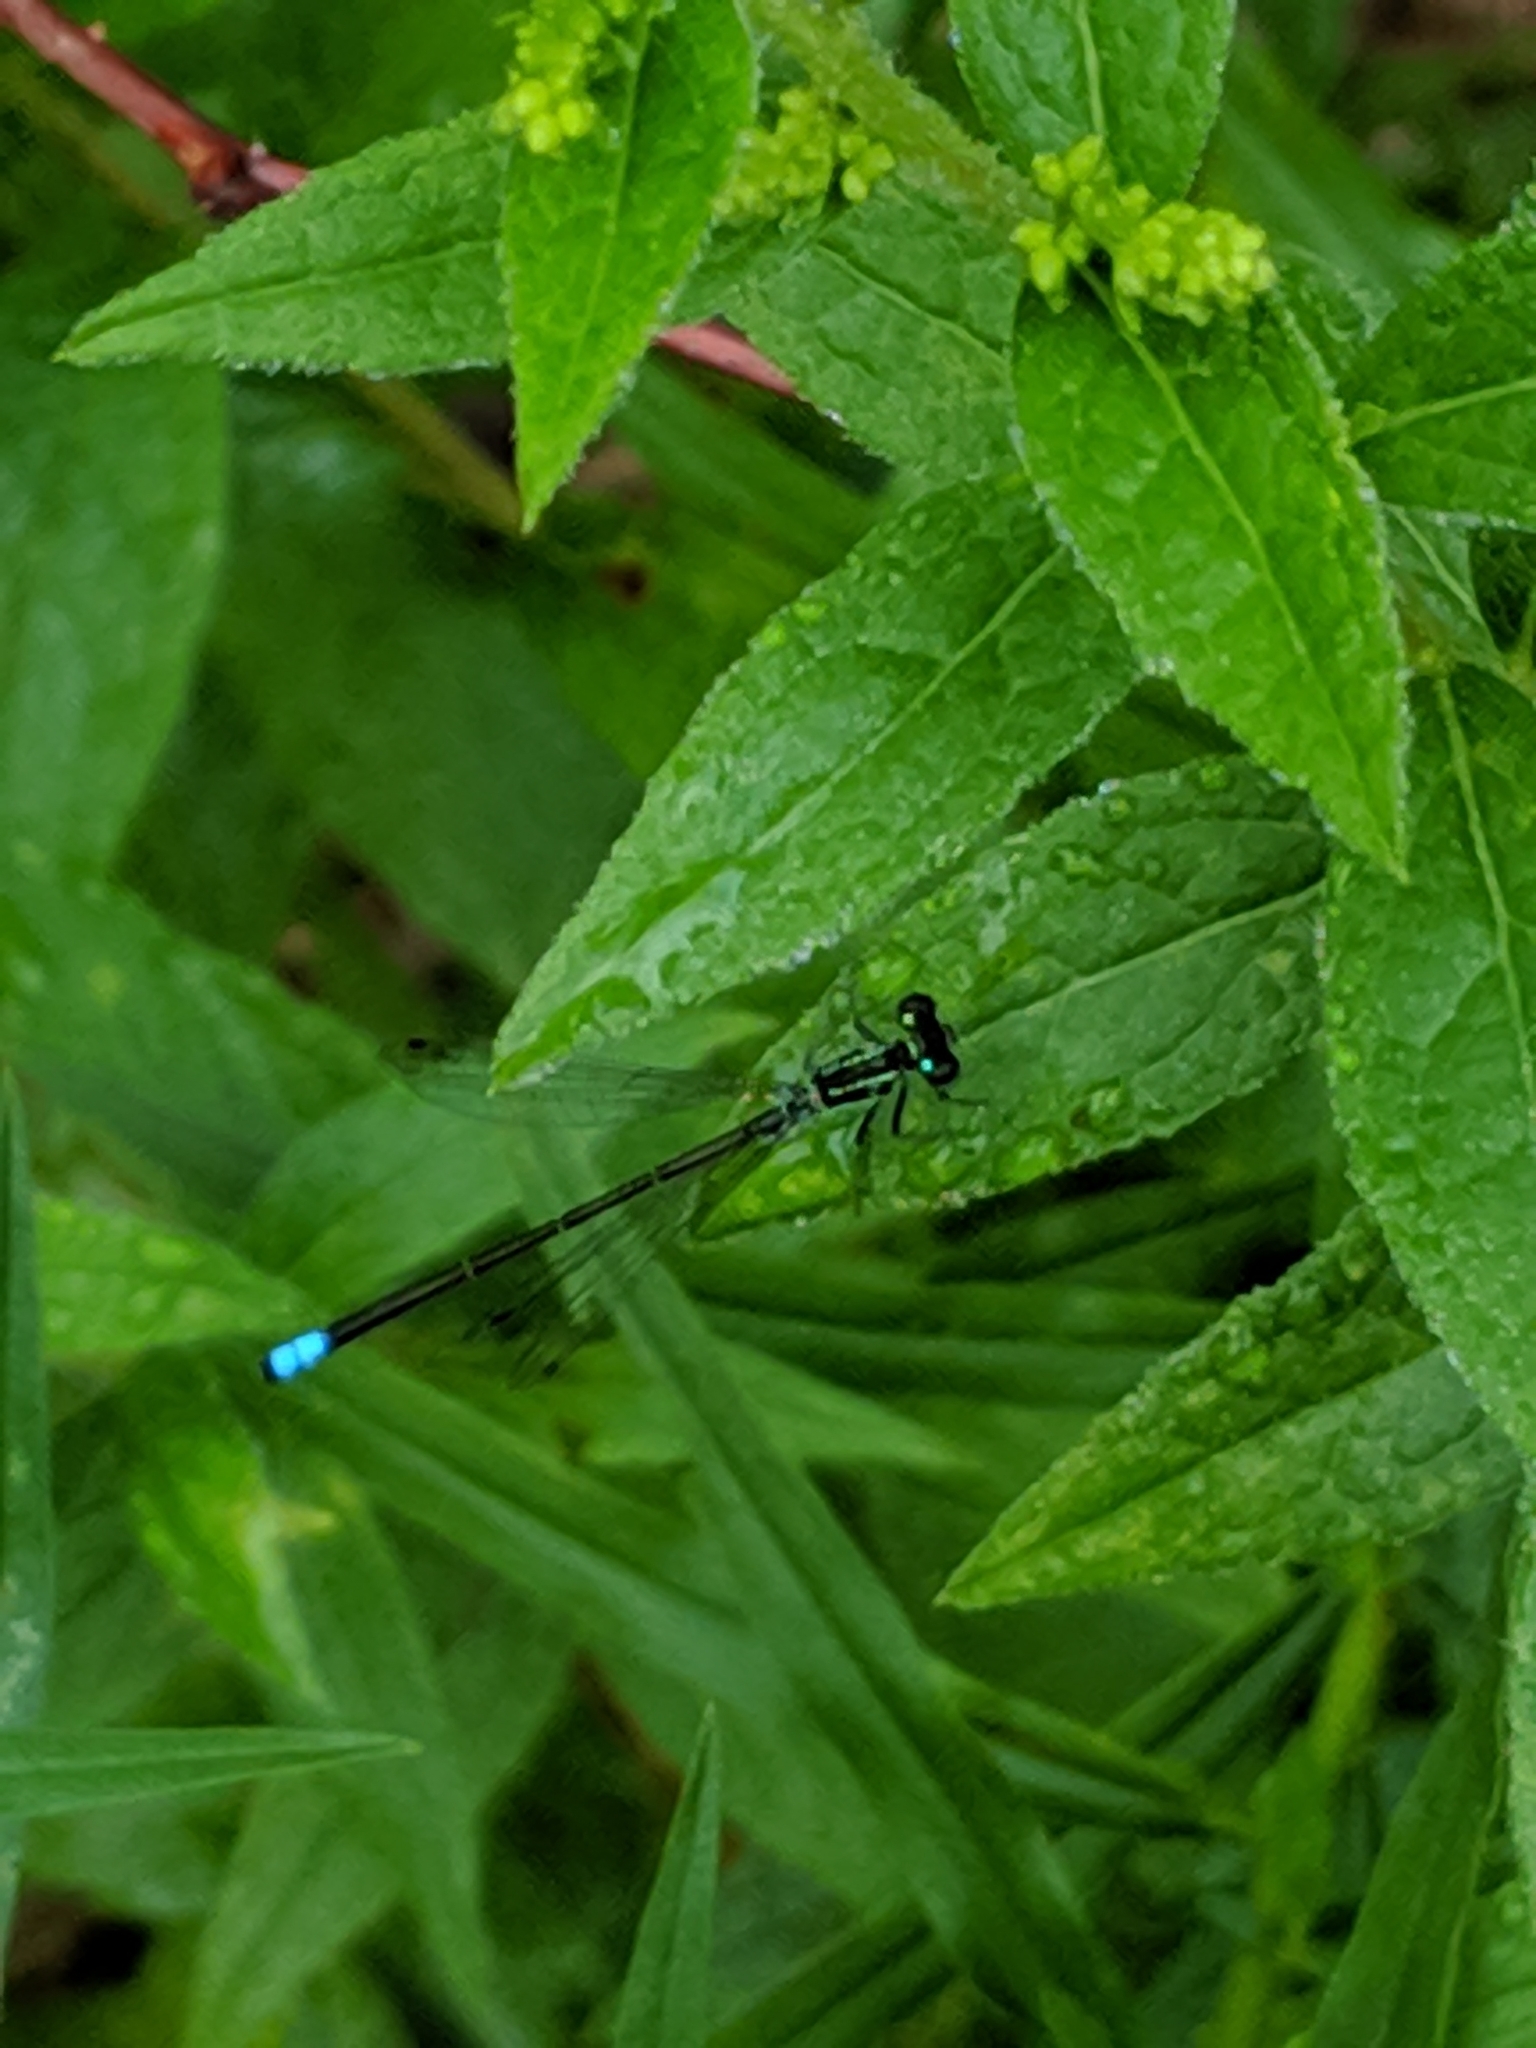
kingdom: Animalia
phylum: Arthropoda
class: Insecta
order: Odonata
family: Coenagrionidae
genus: Ischnura
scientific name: Ischnura verticalis
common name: Eastern forktail
